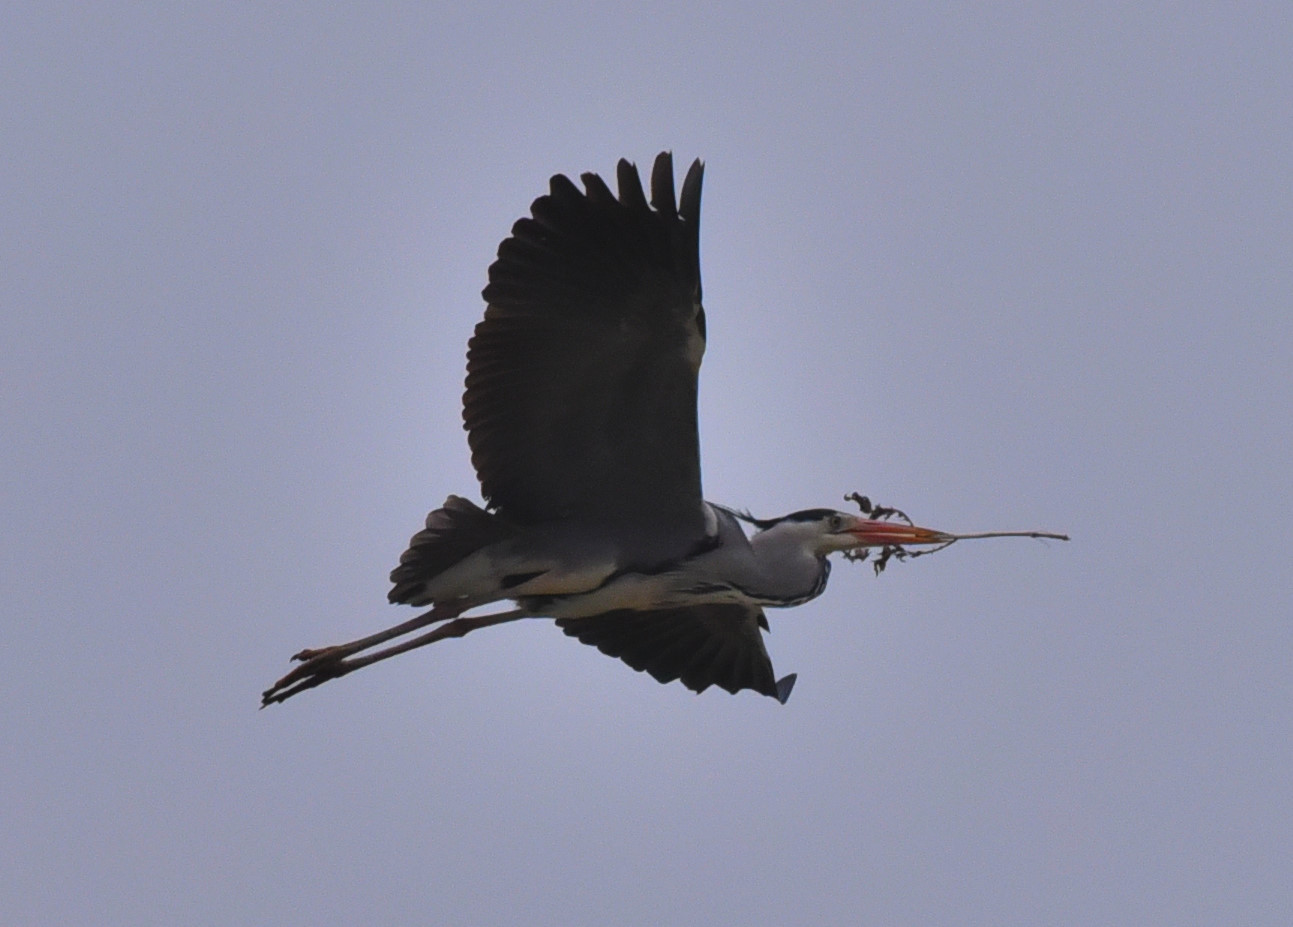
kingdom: Animalia
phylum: Chordata
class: Aves
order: Pelecaniformes
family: Ardeidae
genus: Ardea
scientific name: Ardea cinerea
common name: Grey heron
